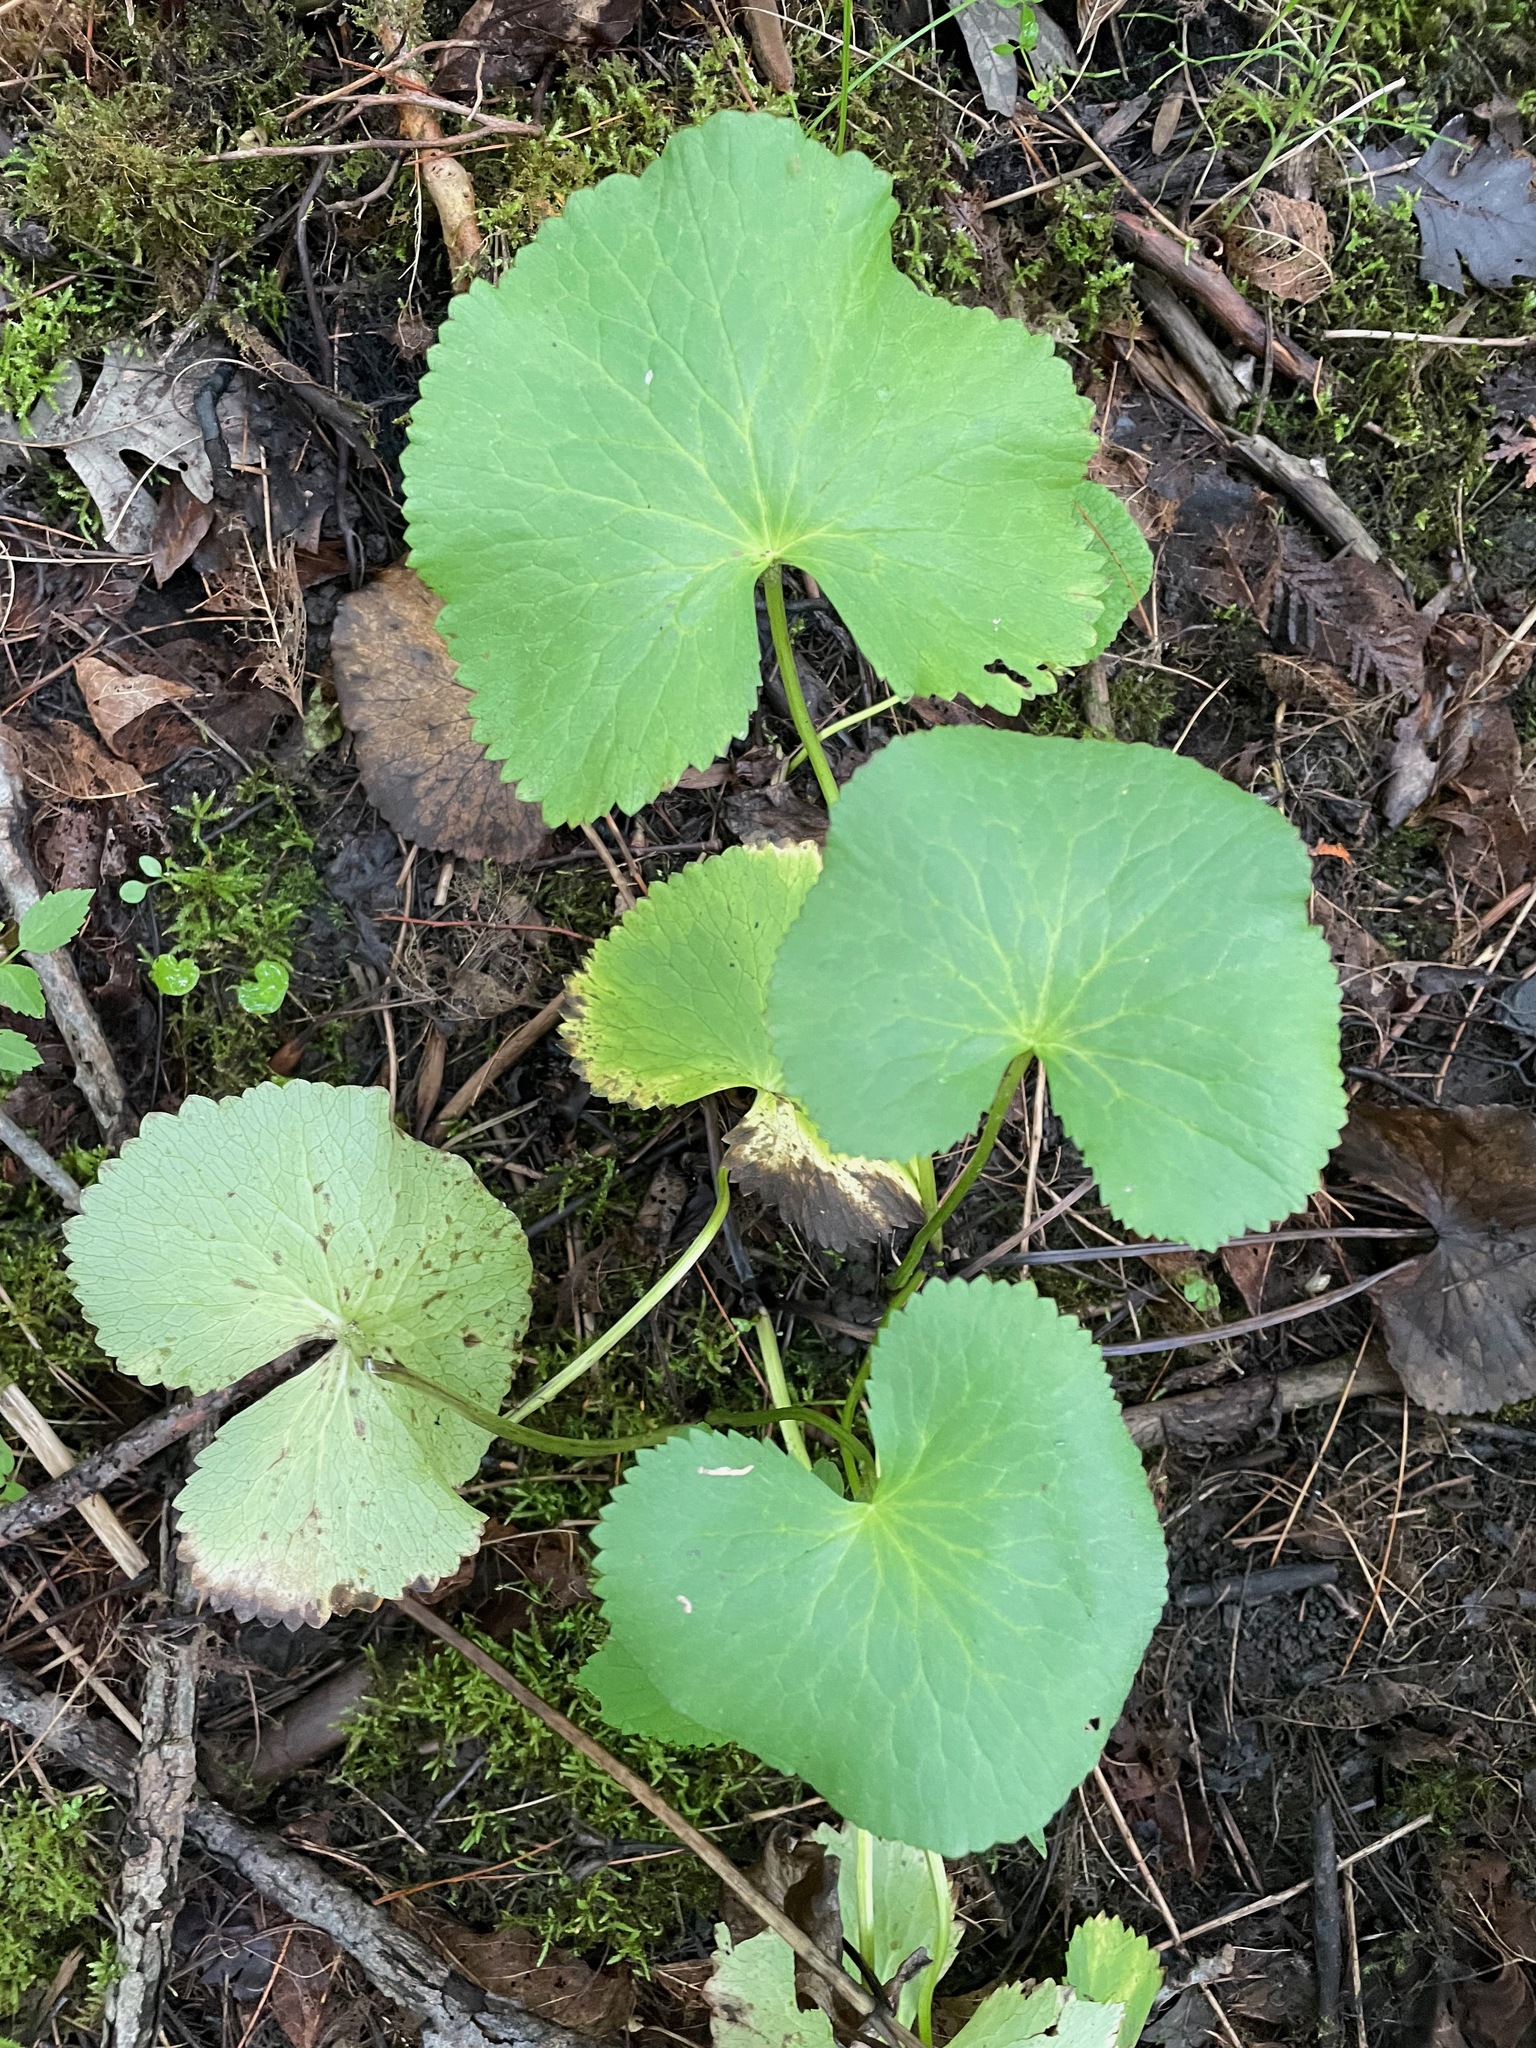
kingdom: Plantae
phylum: Tracheophyta
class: Magnoliopsida
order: Ranunculales
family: Ranunculaceae
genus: Caltha
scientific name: Caltha palustris
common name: Marsh marigold
